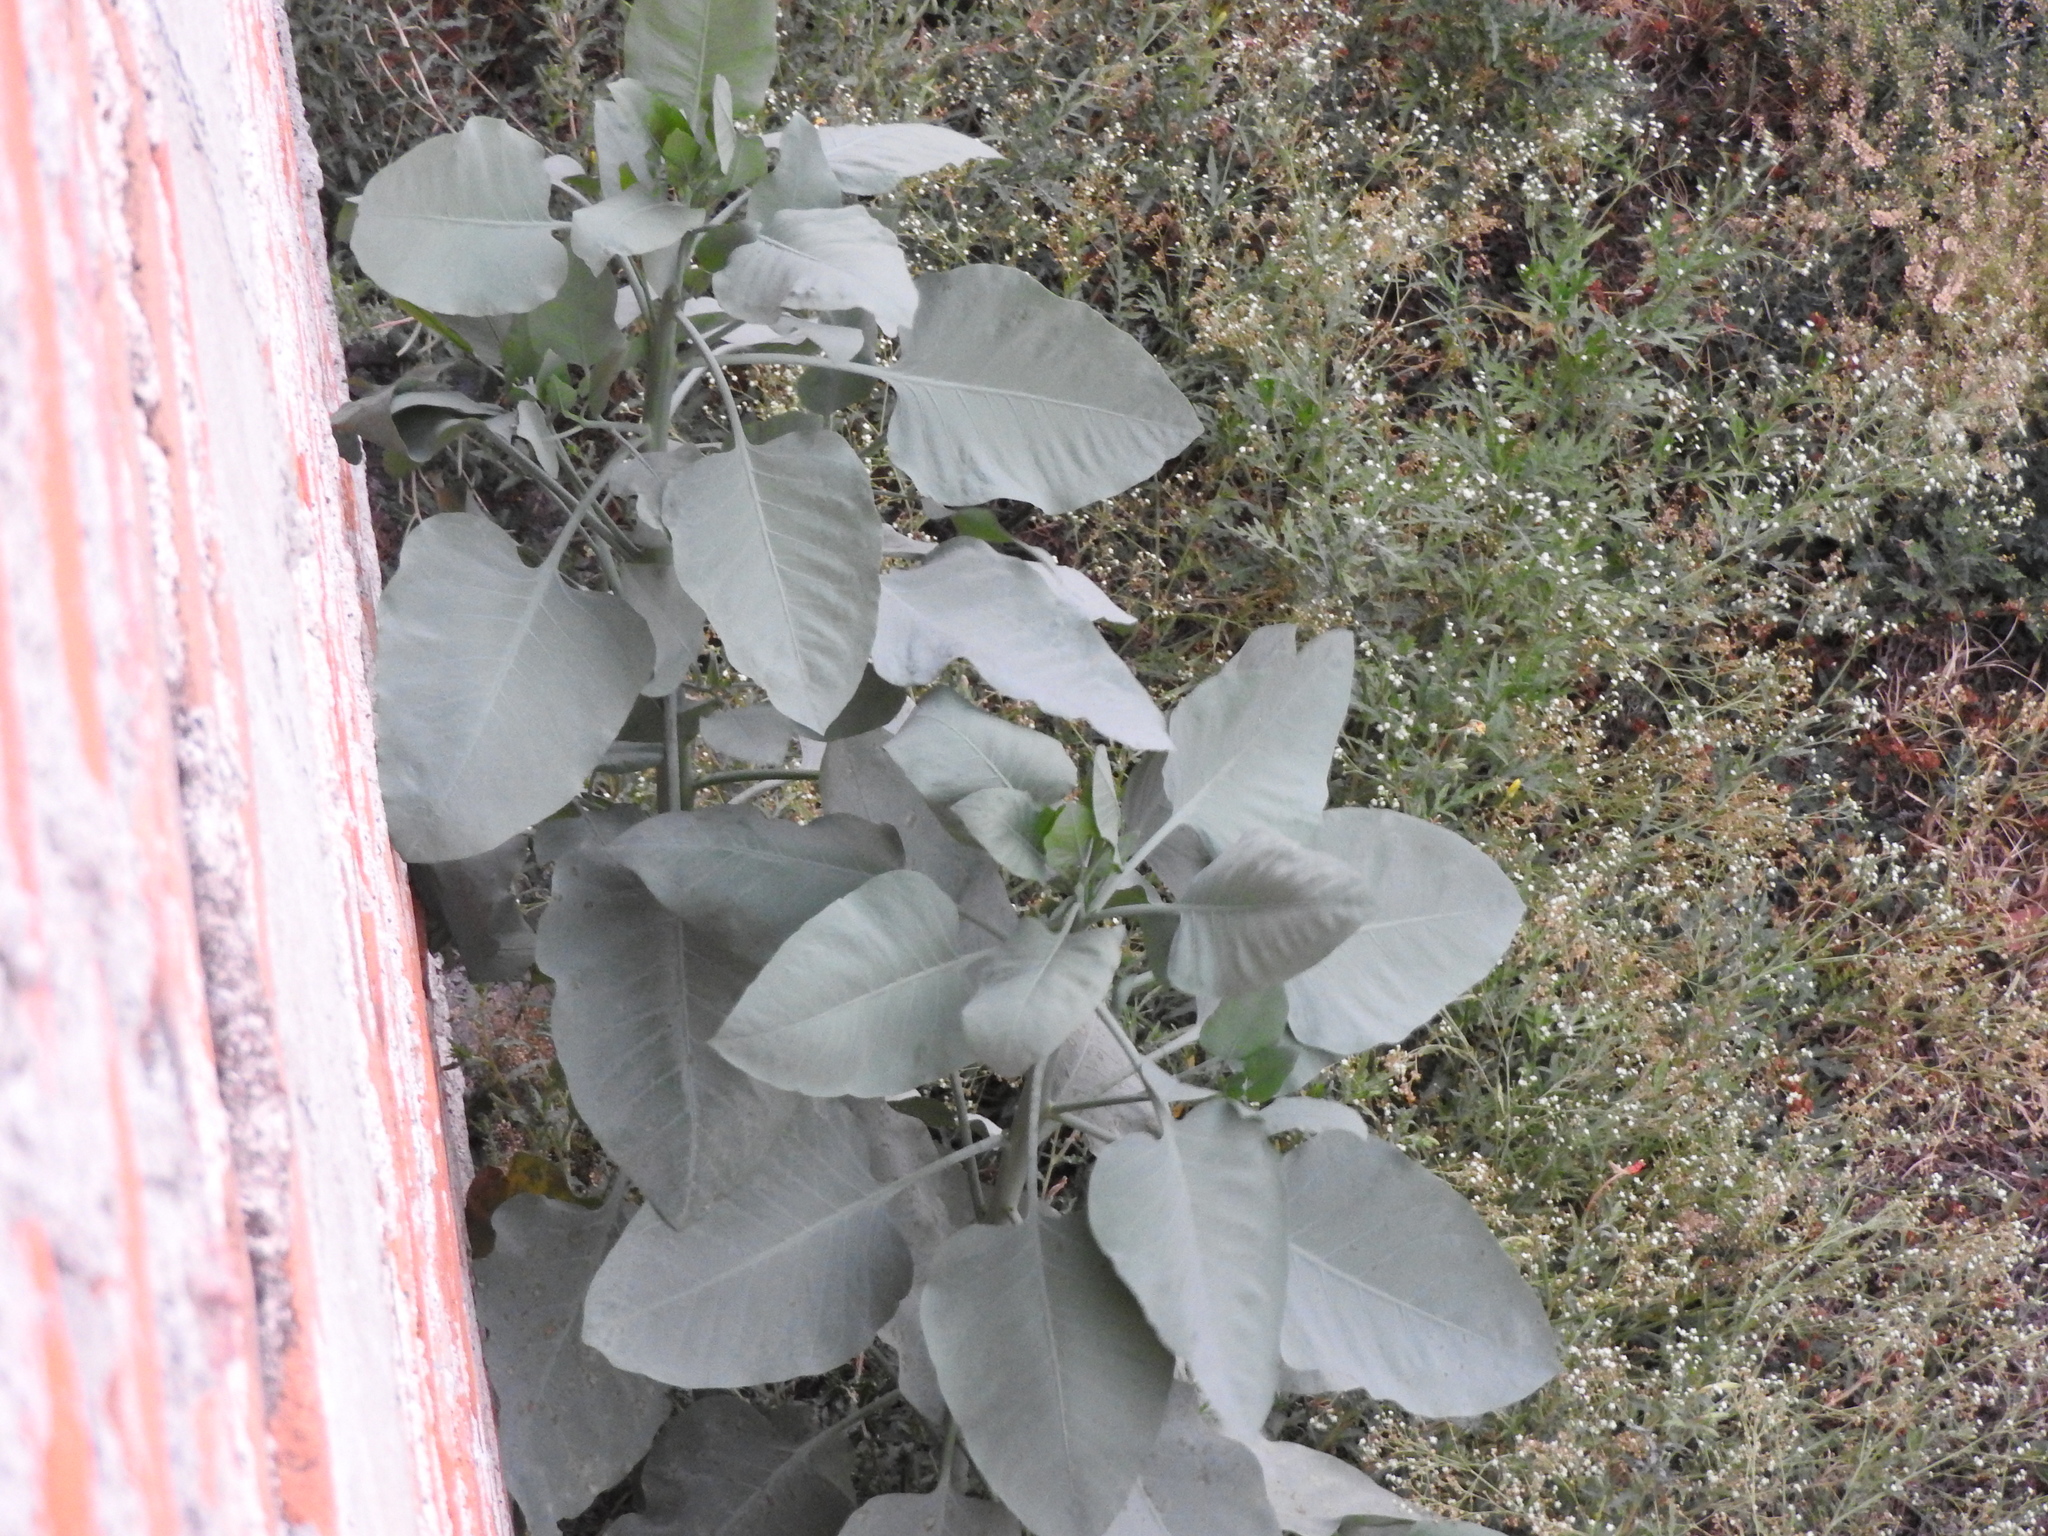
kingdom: Plantae
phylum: Tracheophyta
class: Magnoliopsida
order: Solanales
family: Solanaceae
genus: Nicotiana
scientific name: Nicotiana glauca
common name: Tree tobacco
